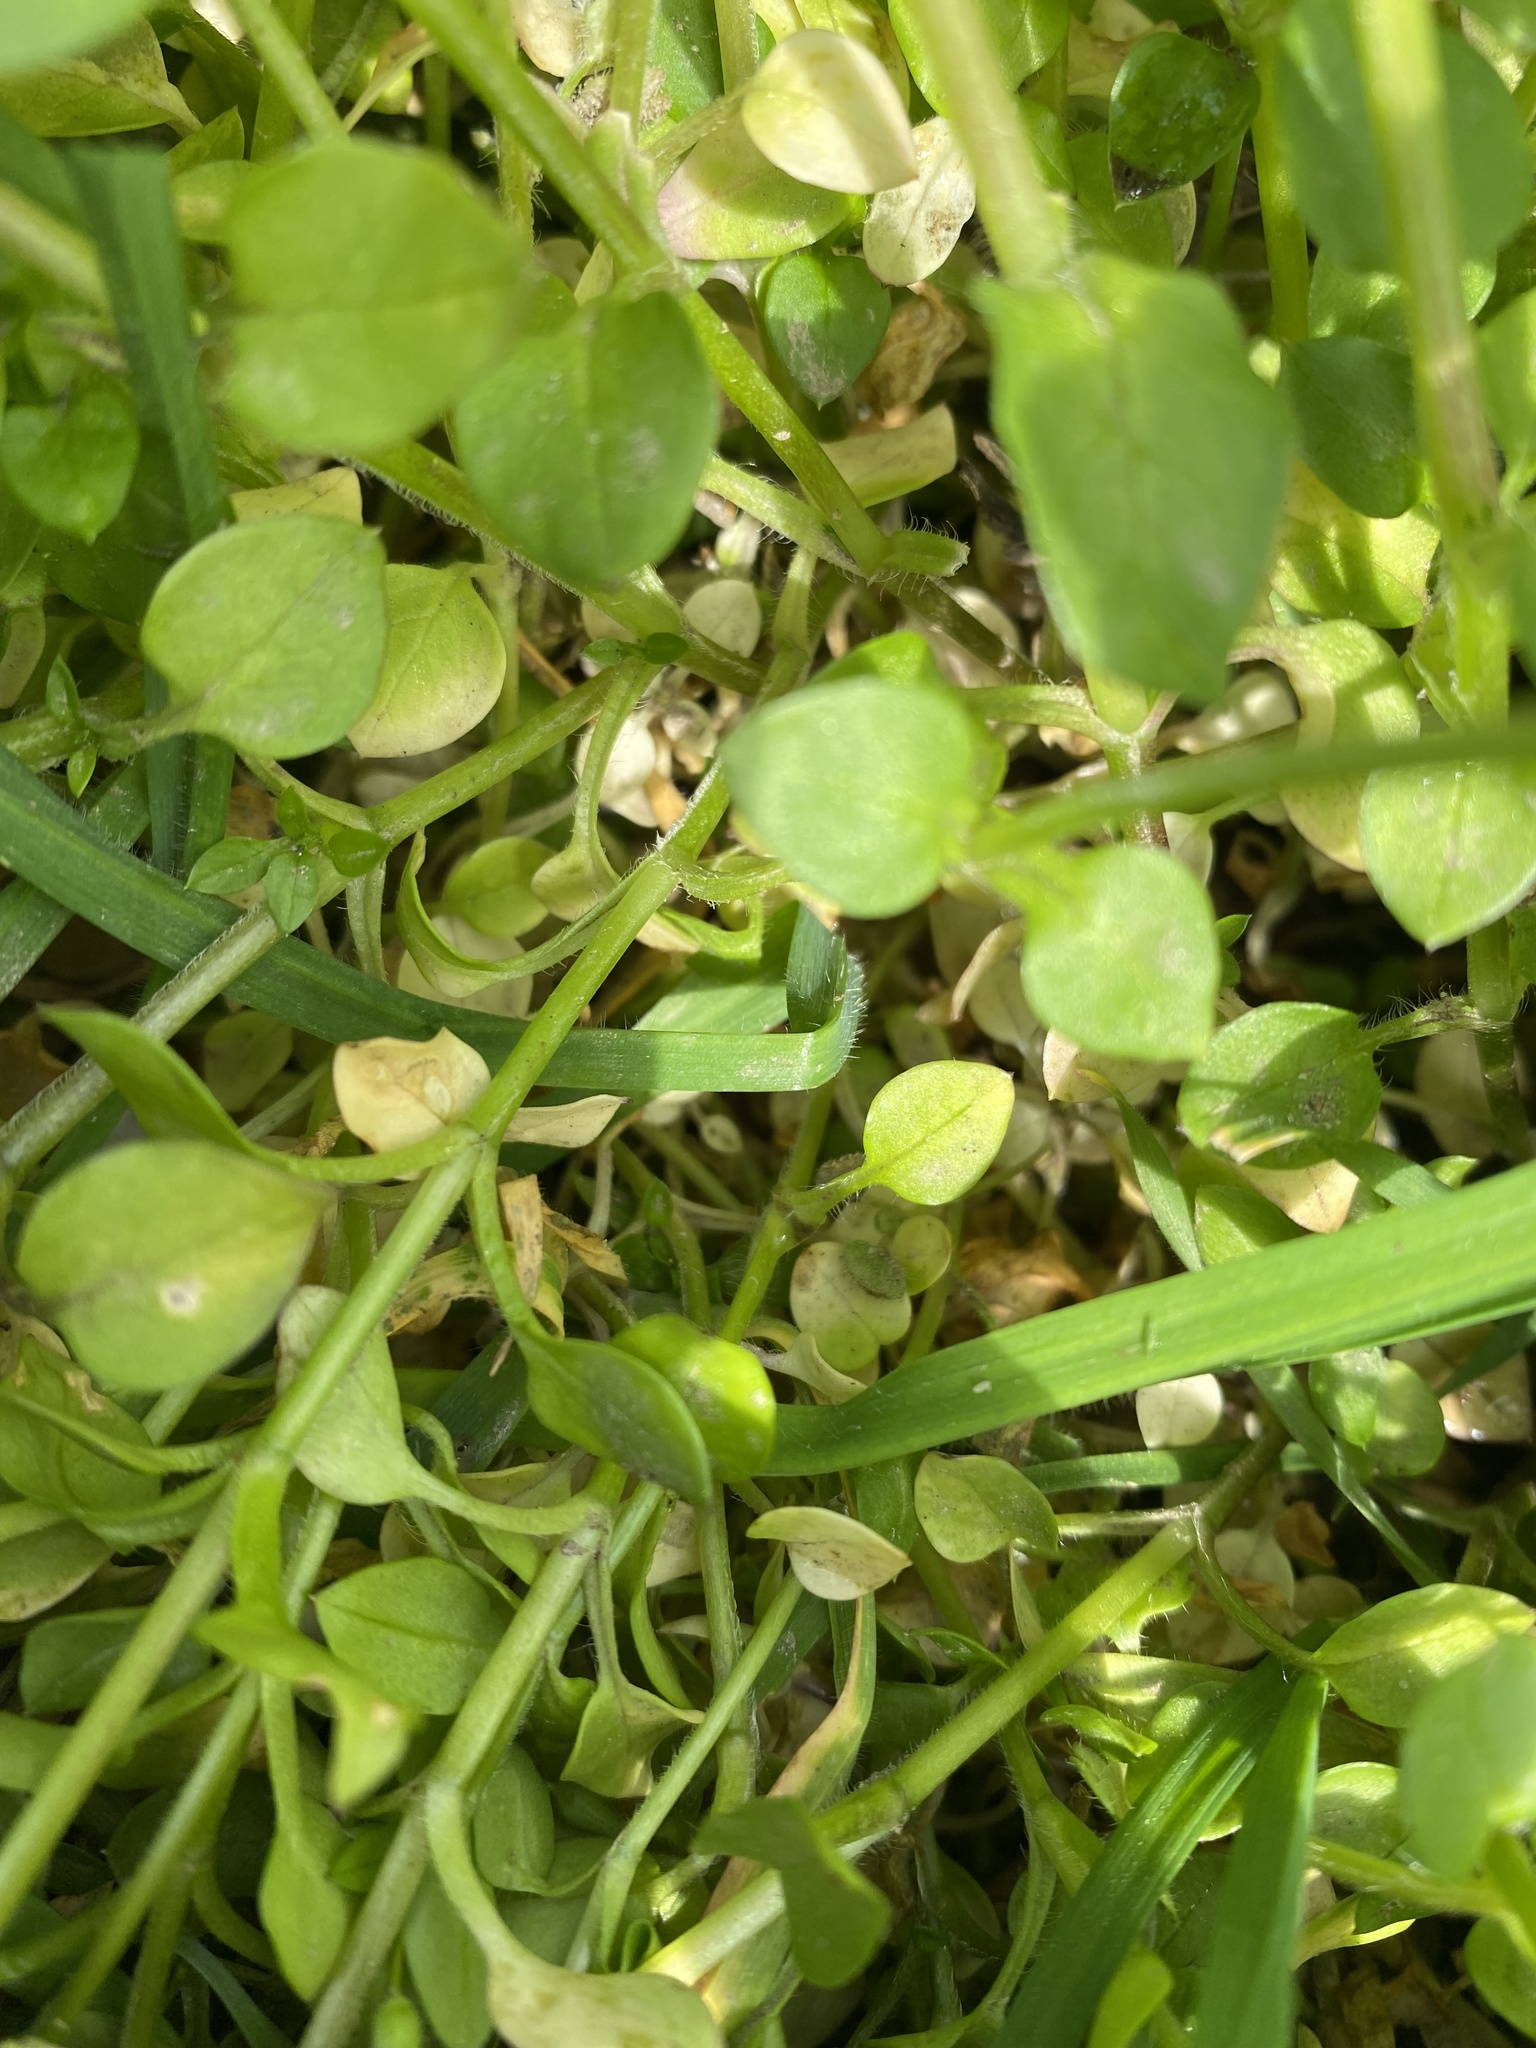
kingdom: Plantae
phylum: Tracheophyta
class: Magnoliopsida
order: Caryophyllales
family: Caryophyllaceae
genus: Stellaria
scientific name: Stellaria media
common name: Common chickweed
